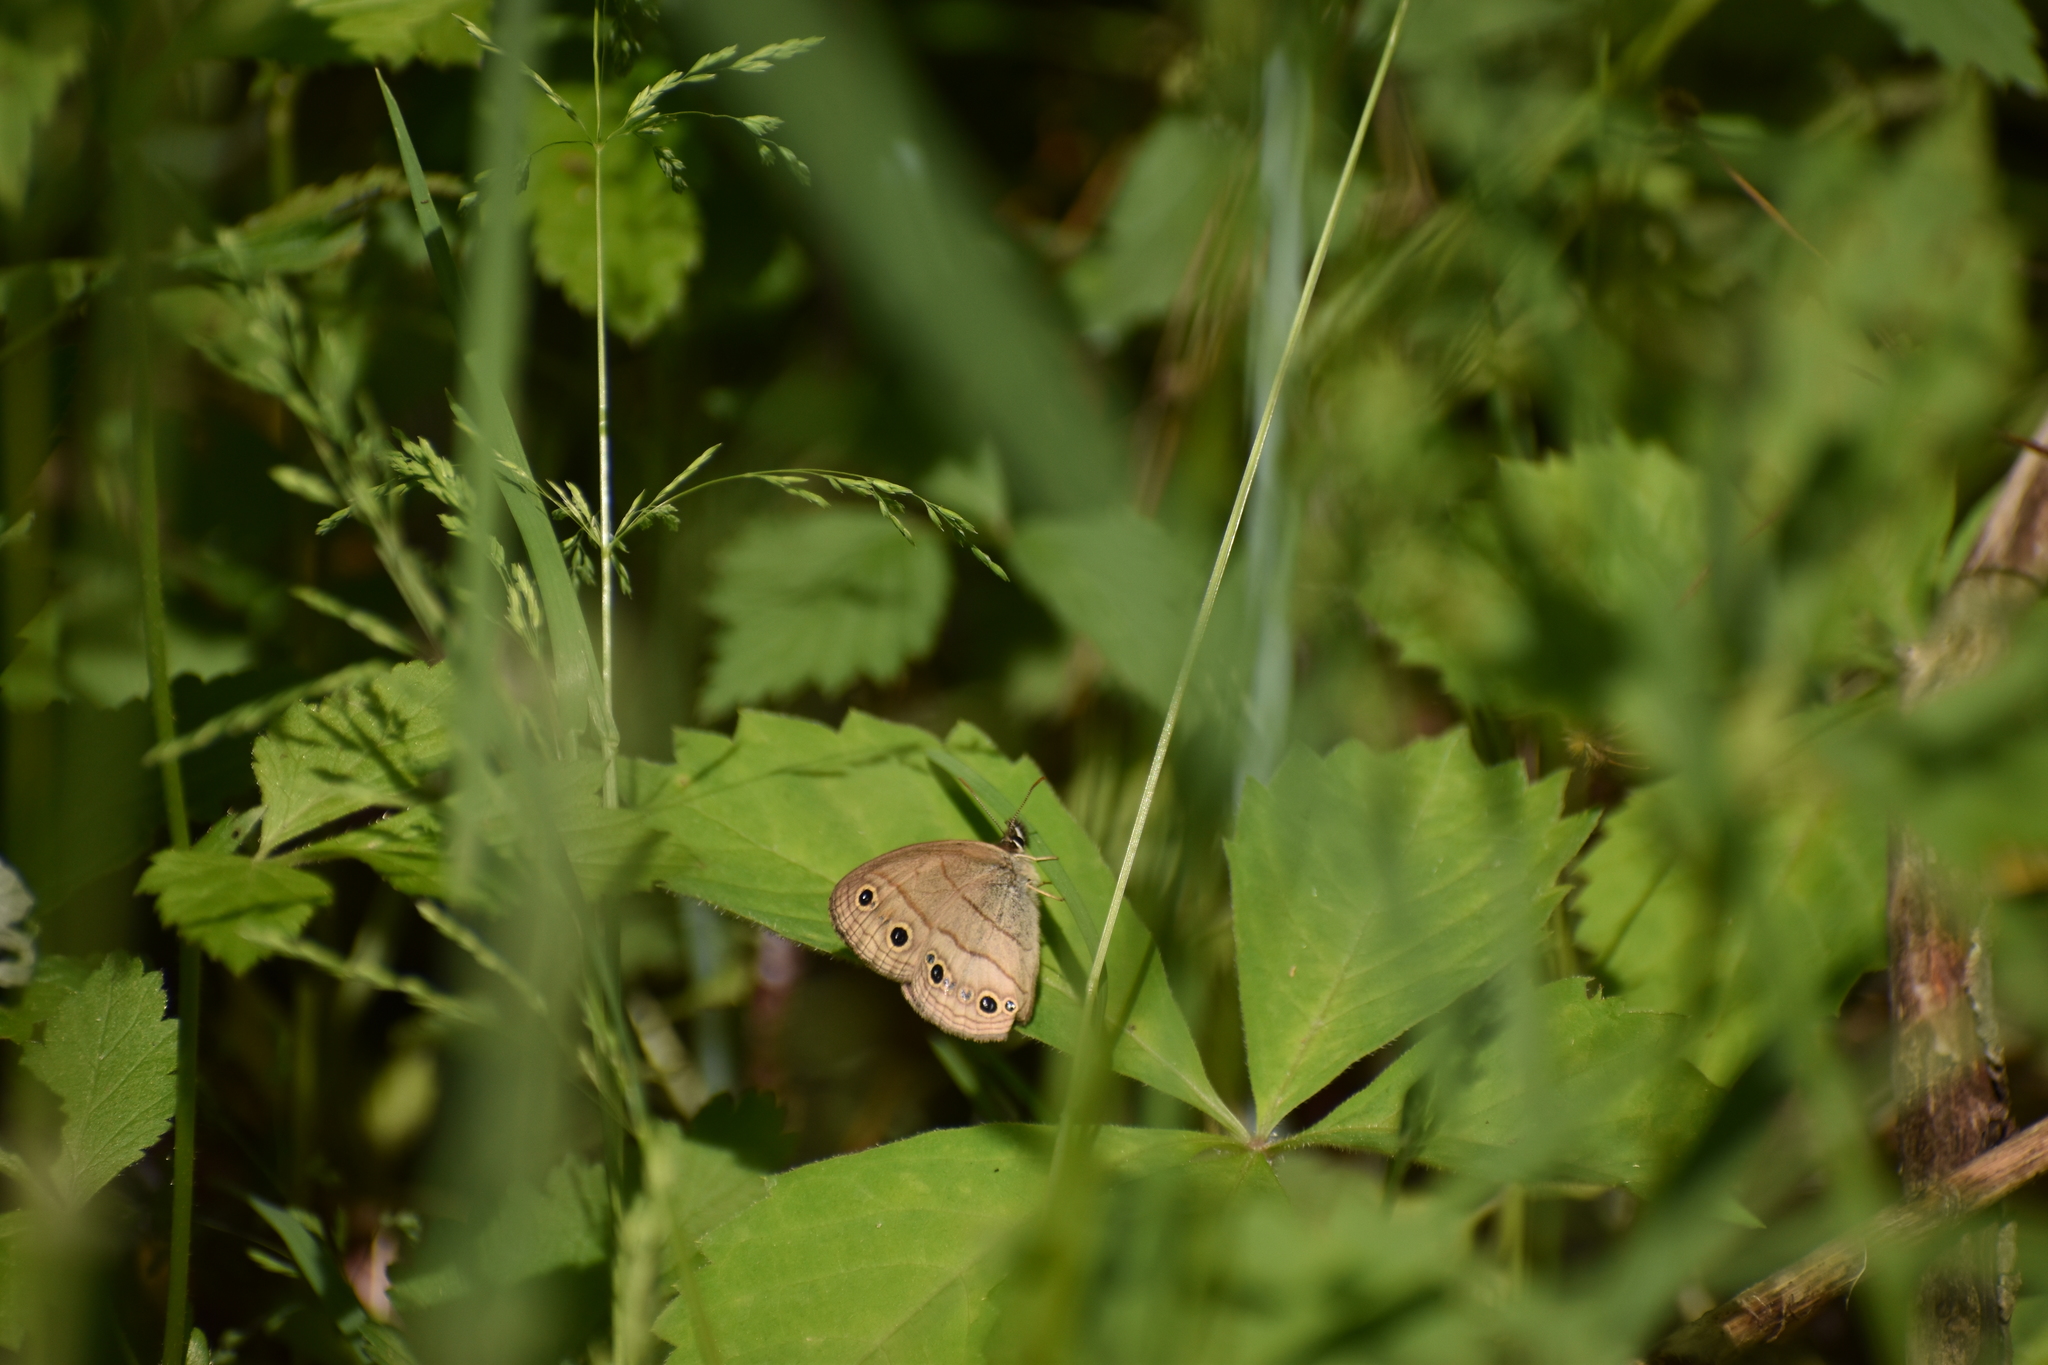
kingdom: Animalia
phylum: Arthropoda
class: Insecta
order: Lepidoptera
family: Nymphalidae
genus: Euptychia
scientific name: Euptychia cymela
